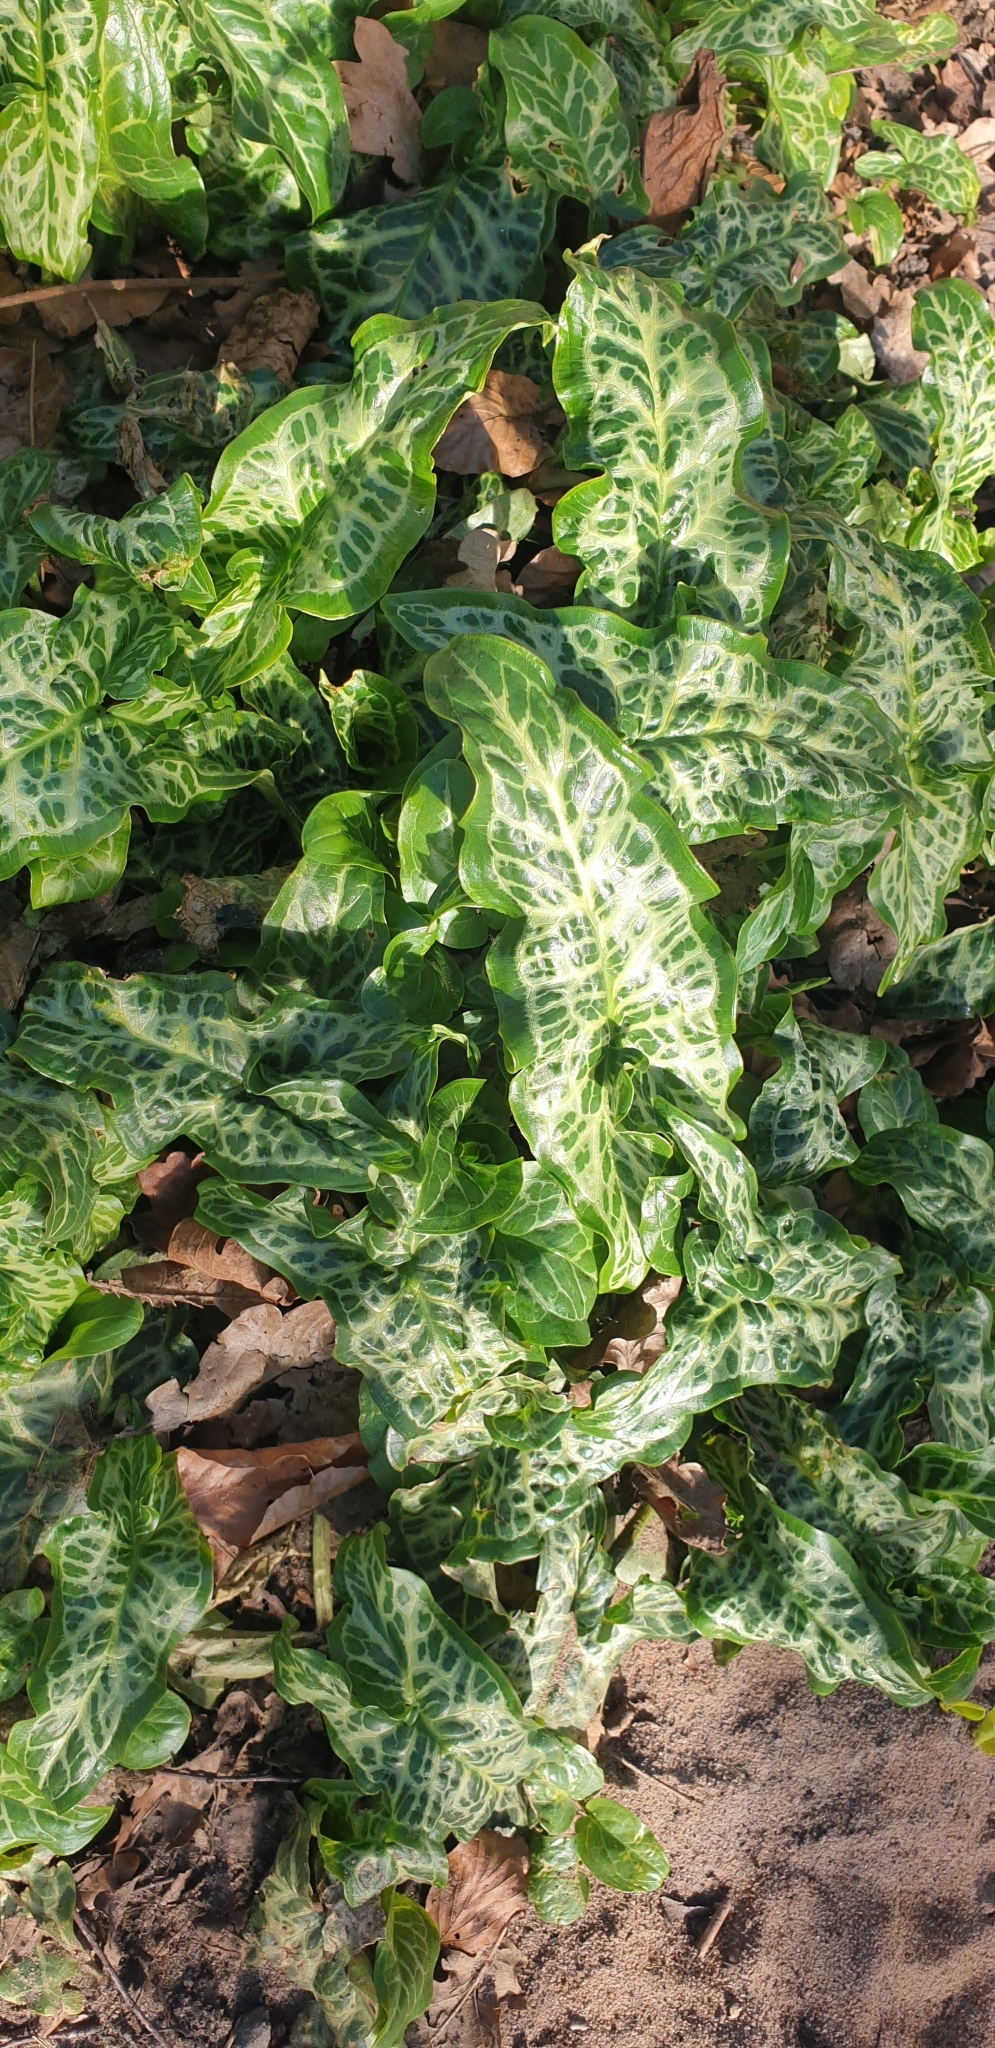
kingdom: Plantae
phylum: Tracheophyta
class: Liliopsida
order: Alismatales
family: Araceae
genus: Arum
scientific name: Arum italicum
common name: Italian lords-and-ladies
